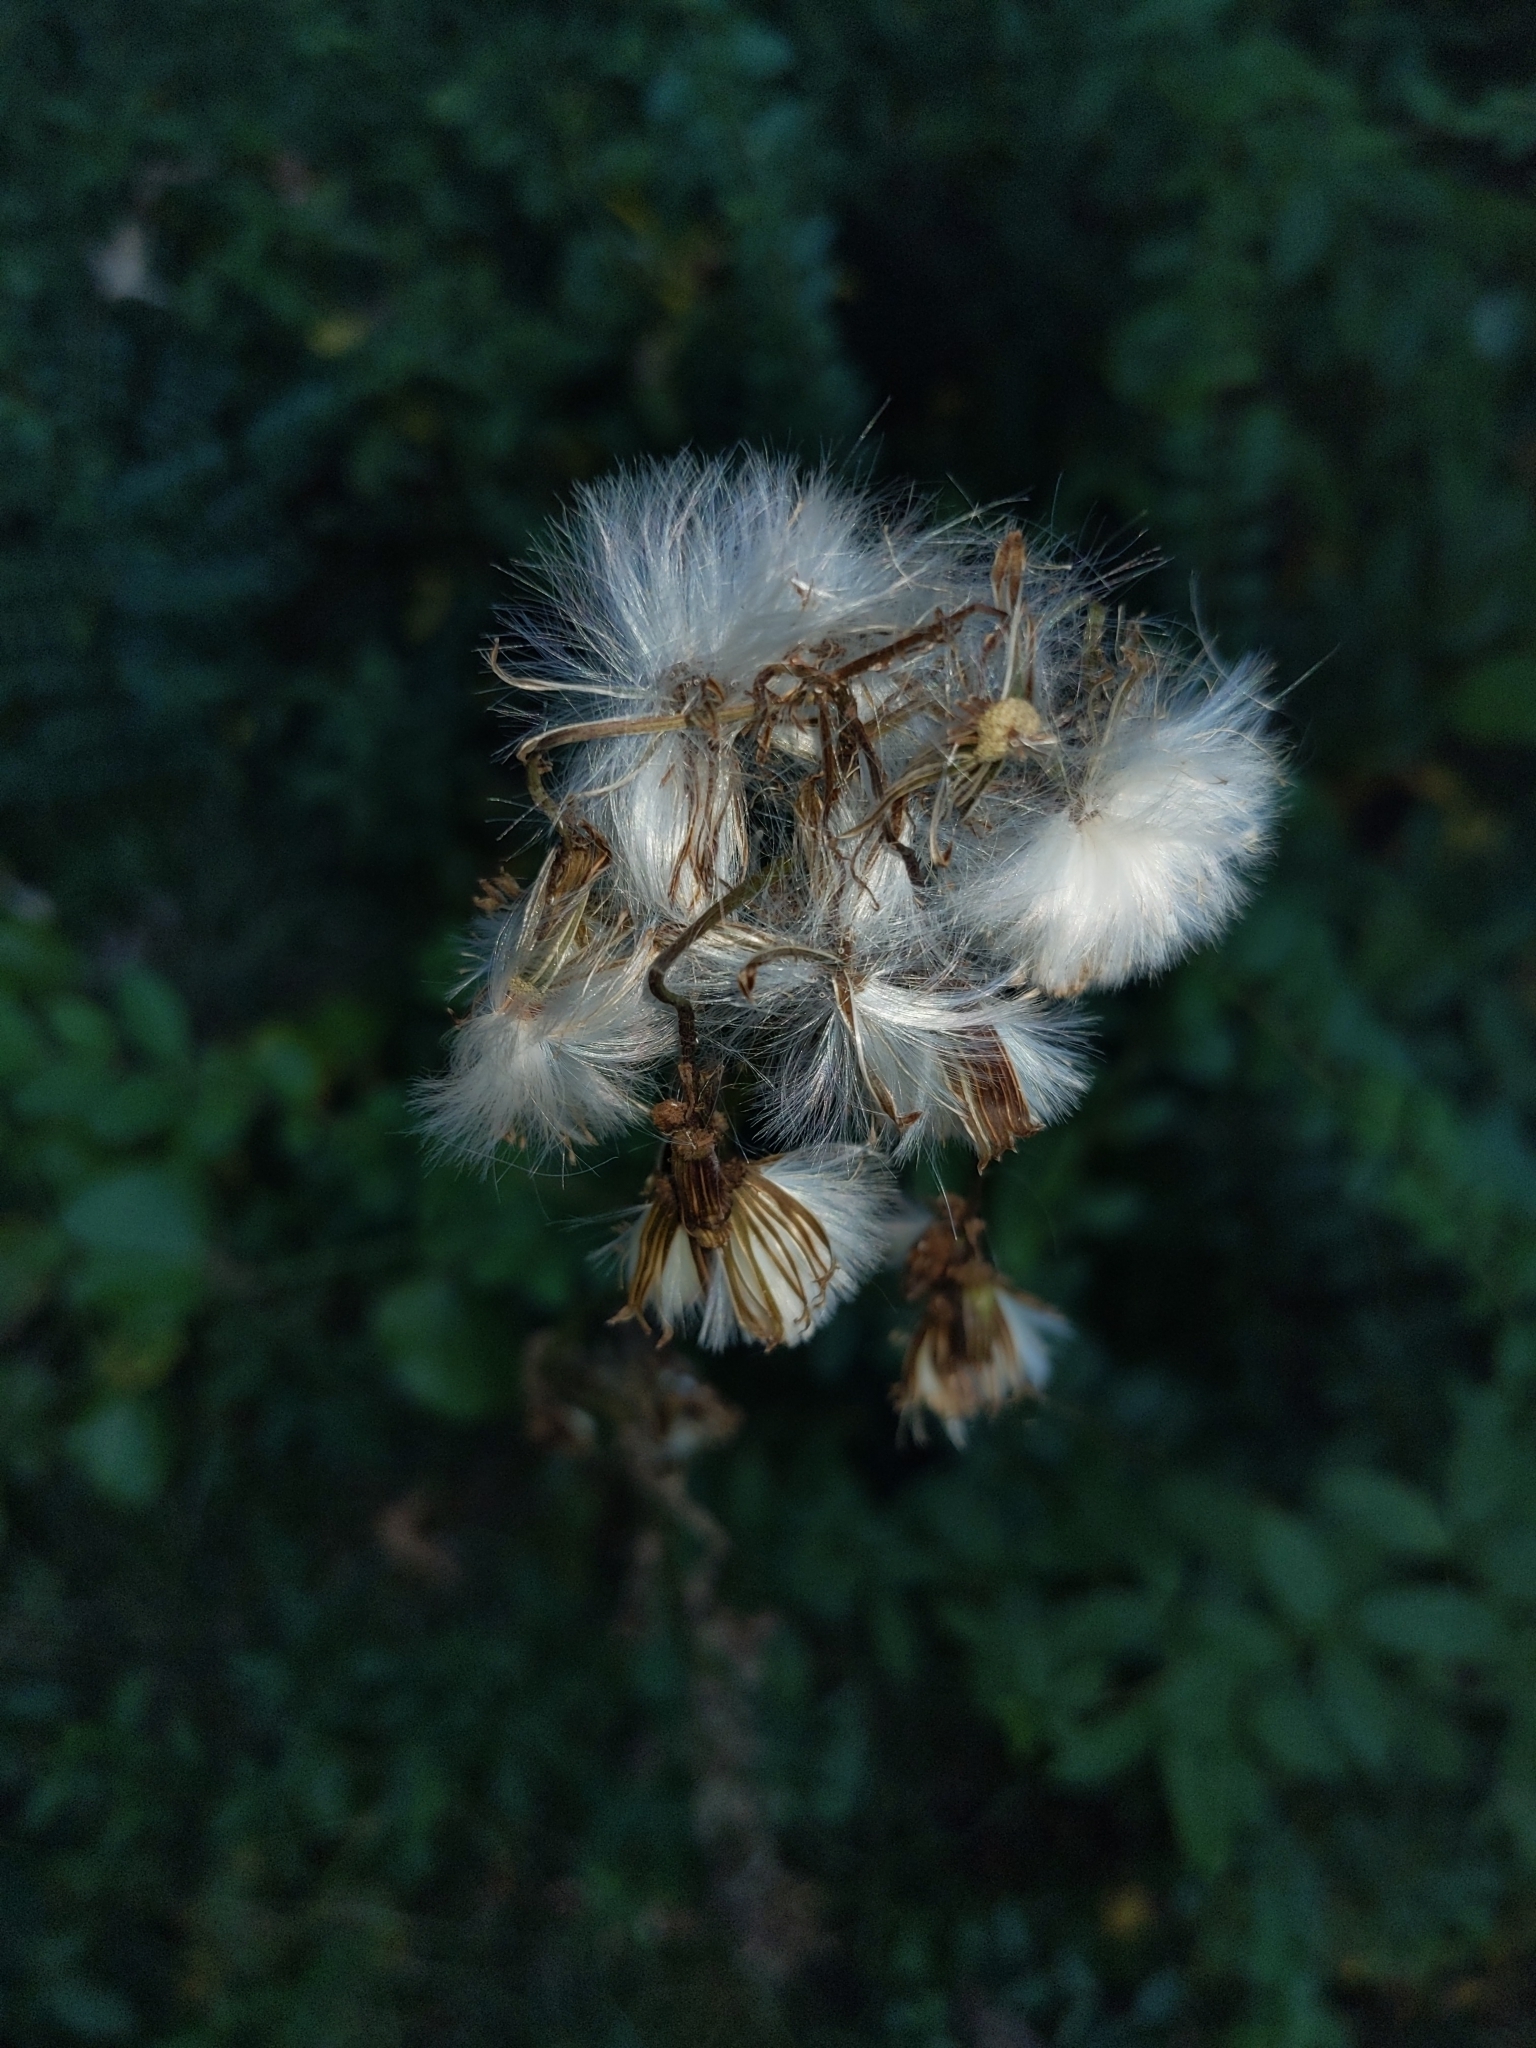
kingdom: Plantae
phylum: Tracheophyta
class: Magnoliopsida
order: Asterales
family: Asteraceae
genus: Erechtites
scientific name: Erechtites hieraciifolius
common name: American burnweed
